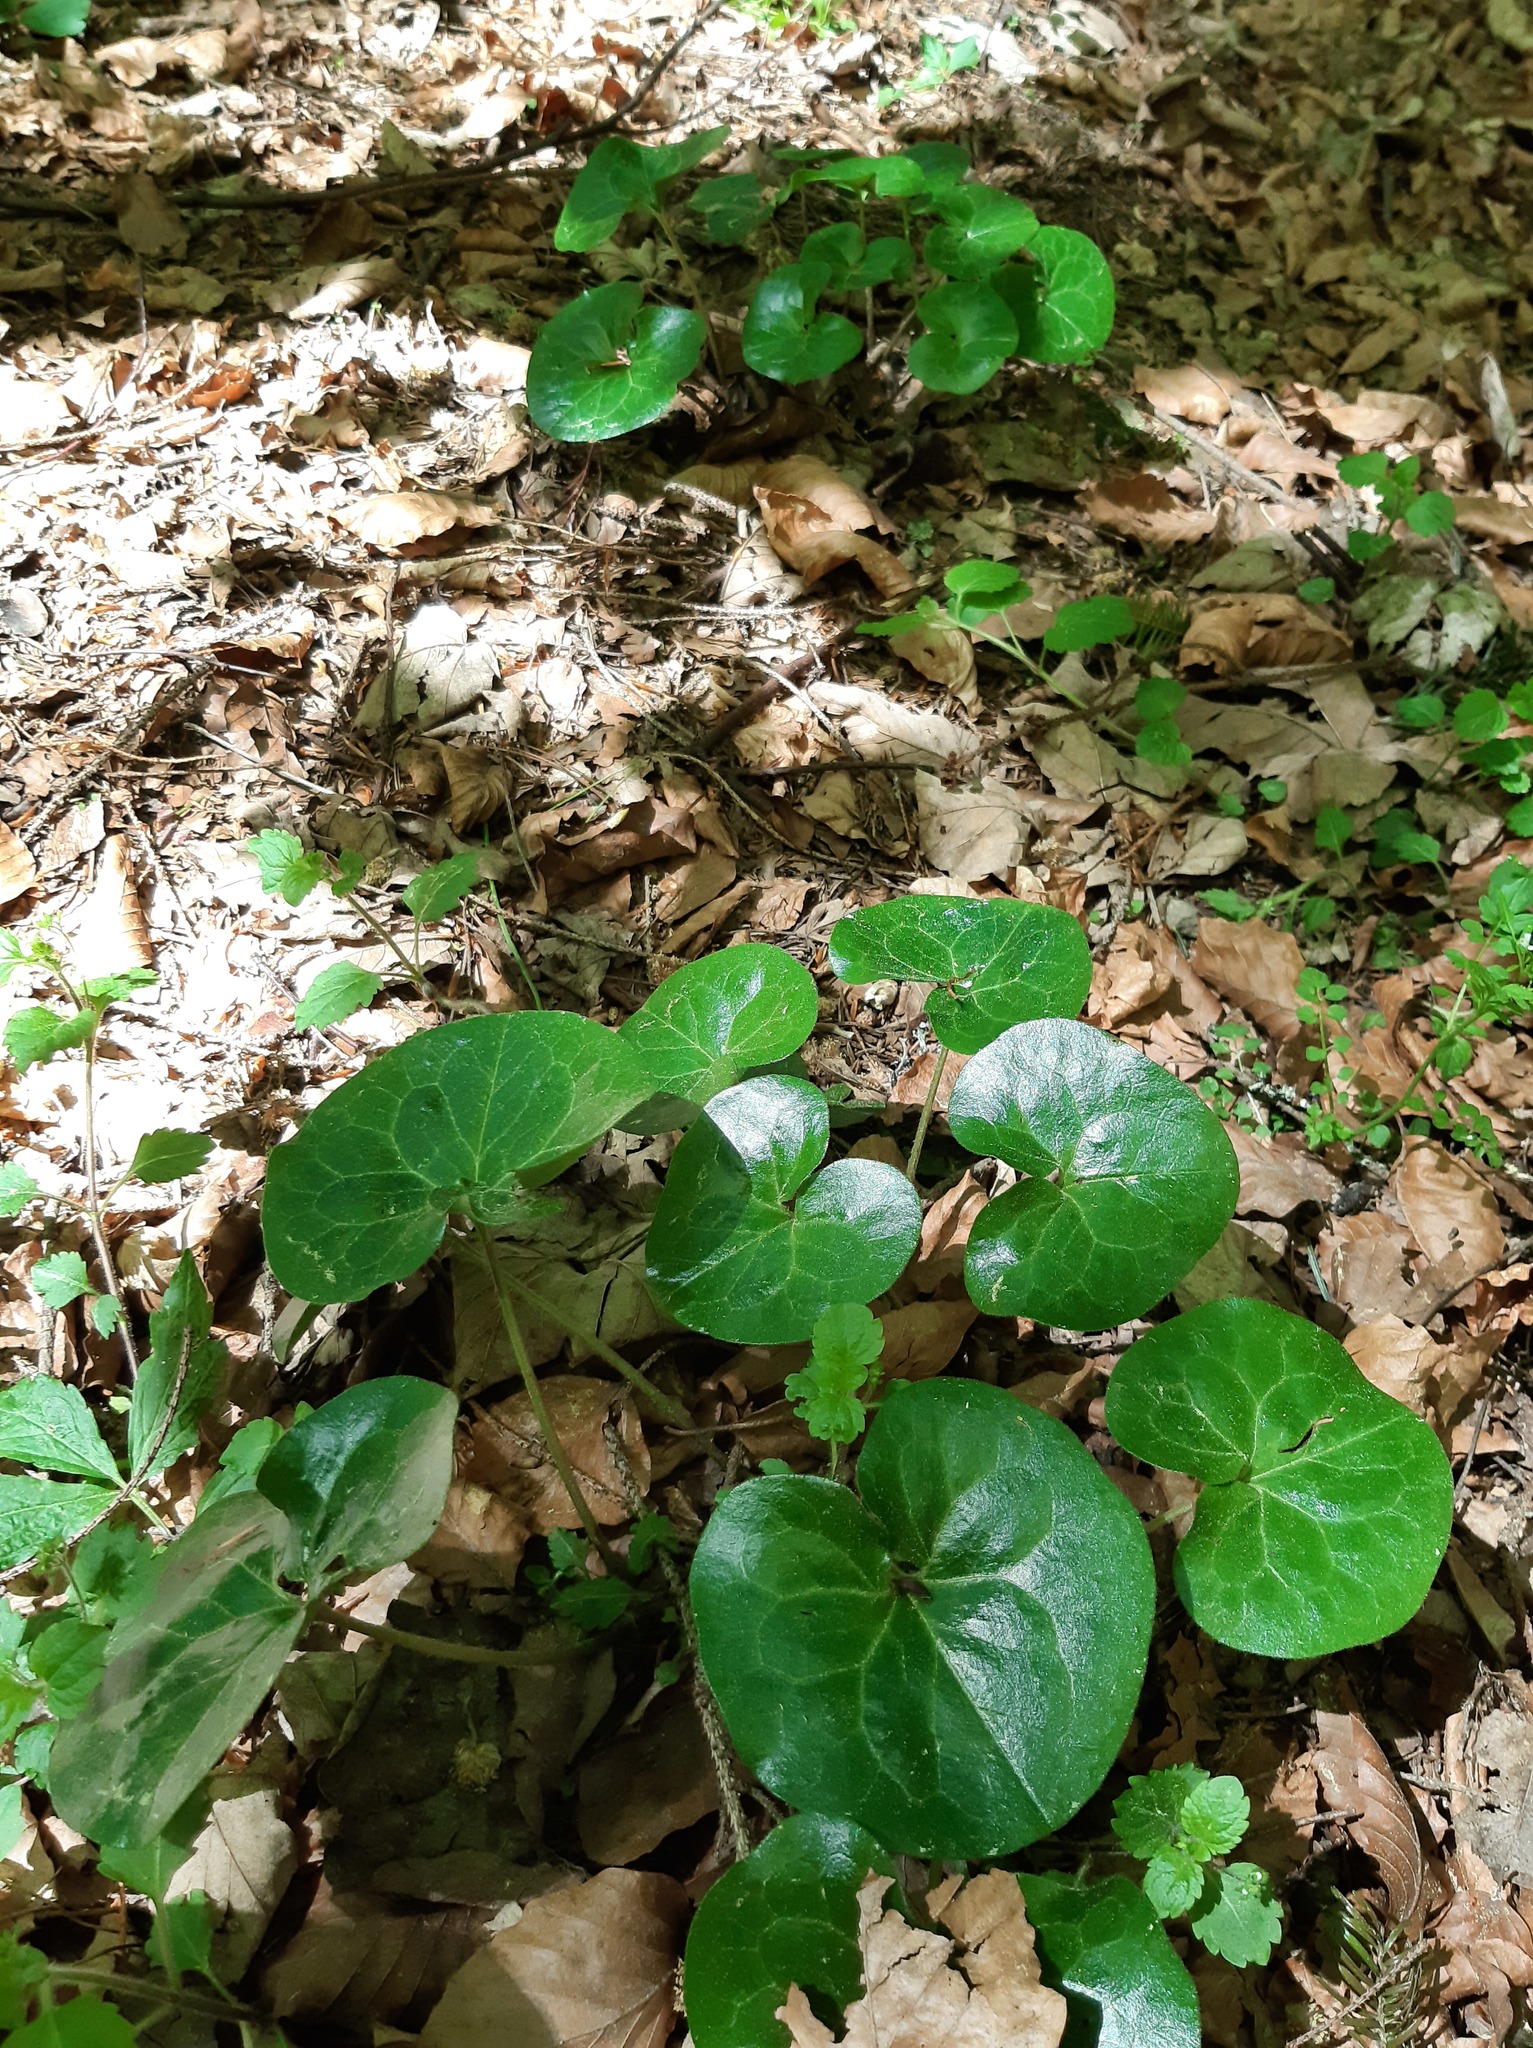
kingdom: Plantae
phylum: Tracheophyta
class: Magnoliopsida
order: Piperales
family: Aristolochiaceae
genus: Asarum
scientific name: Asarum europaeum
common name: Asarabacca
